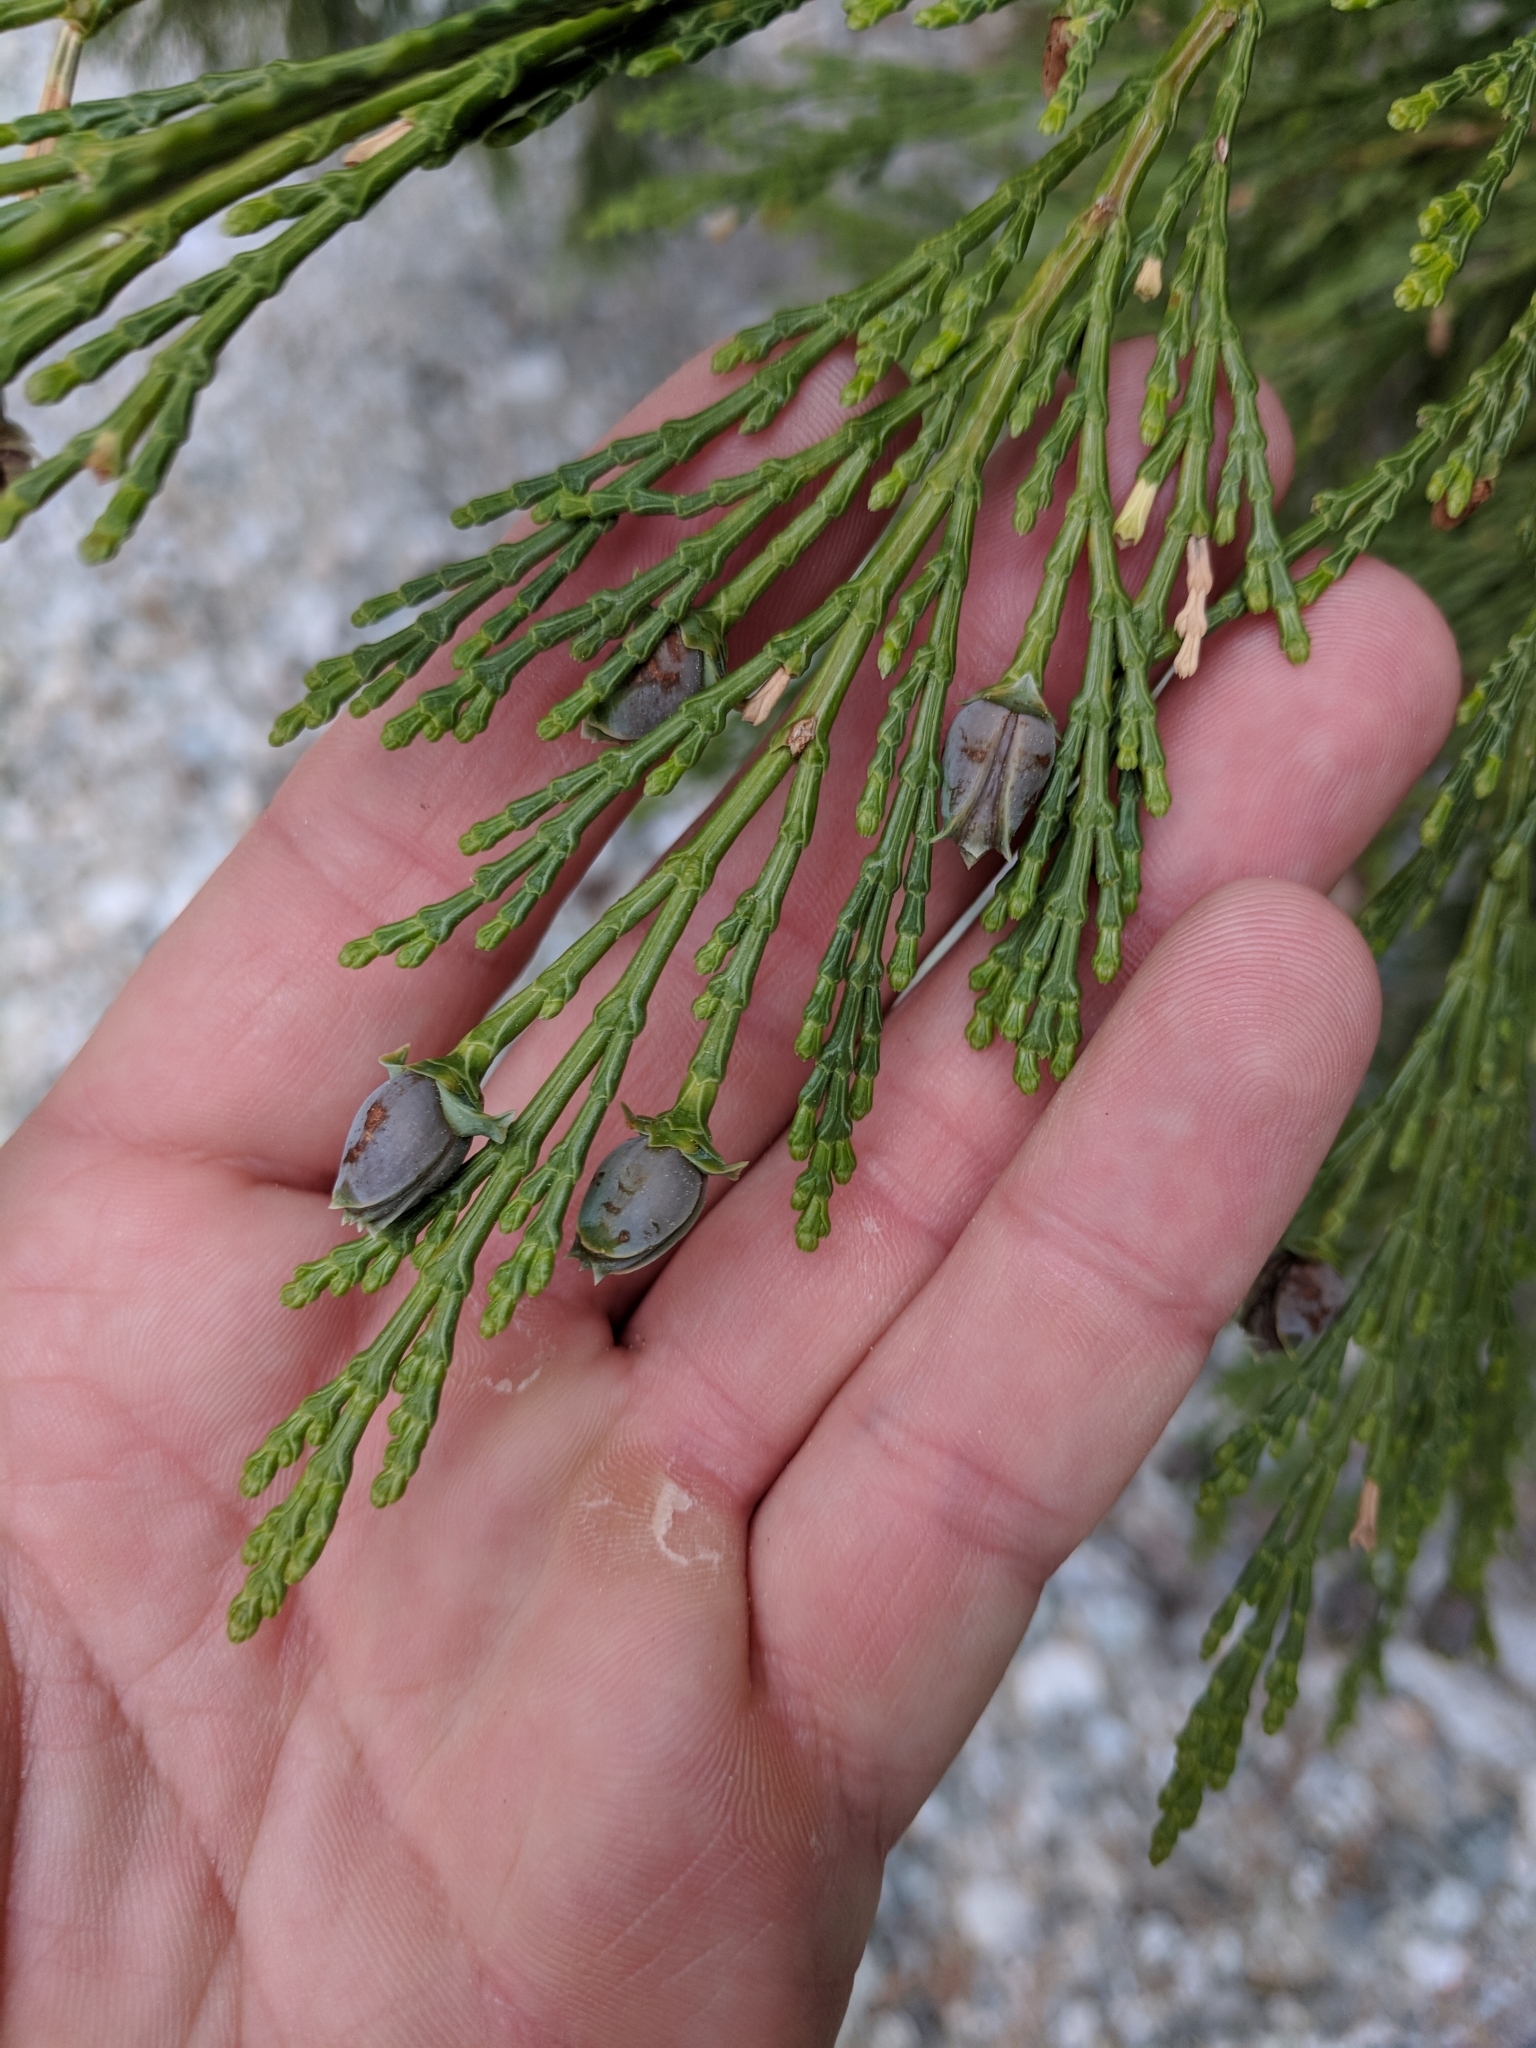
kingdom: Plantae
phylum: Tracheophyta
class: Pinopsida
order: Pinales
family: Cupressaceae
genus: Calocedrus
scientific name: Calocedrus decurrens
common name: Californian incense-cedar
